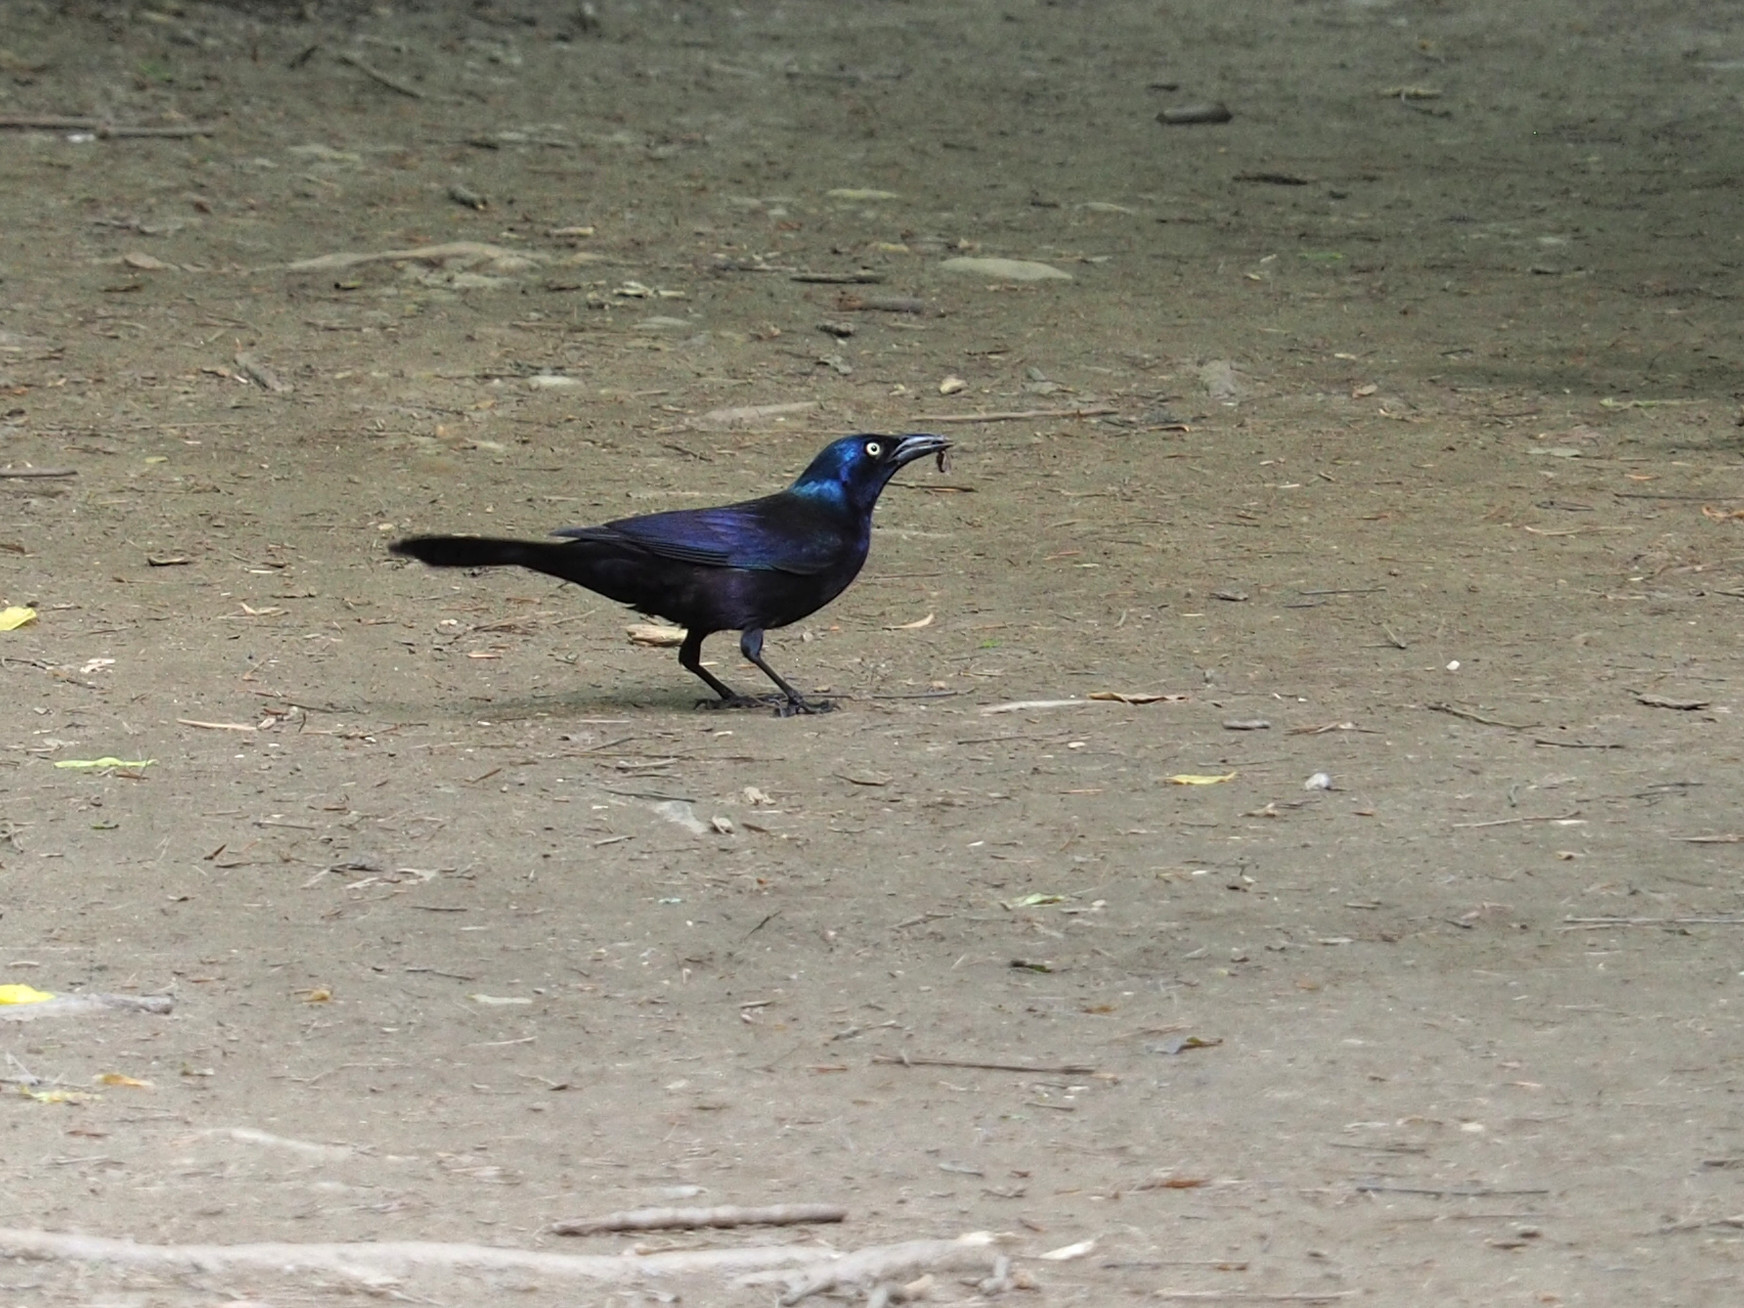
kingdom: Animalia
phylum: Chordata
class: Aves
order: Passeriformes
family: Icteridae
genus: Quiscalus
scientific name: Quiscalus quiscula
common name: Common grackle
